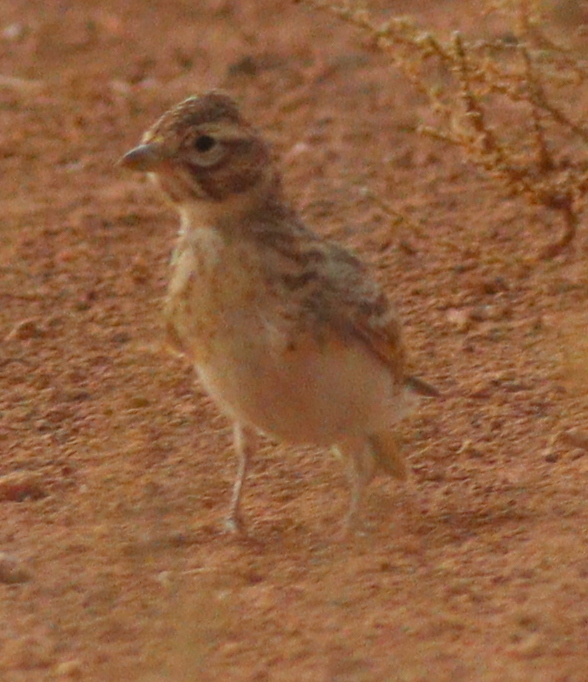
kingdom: Animalia
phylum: Chordata
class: Aves
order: Passeriformes
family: Alaudidae
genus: Calandrella
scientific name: Calandrella rufescens
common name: Lesser short-toed lark
